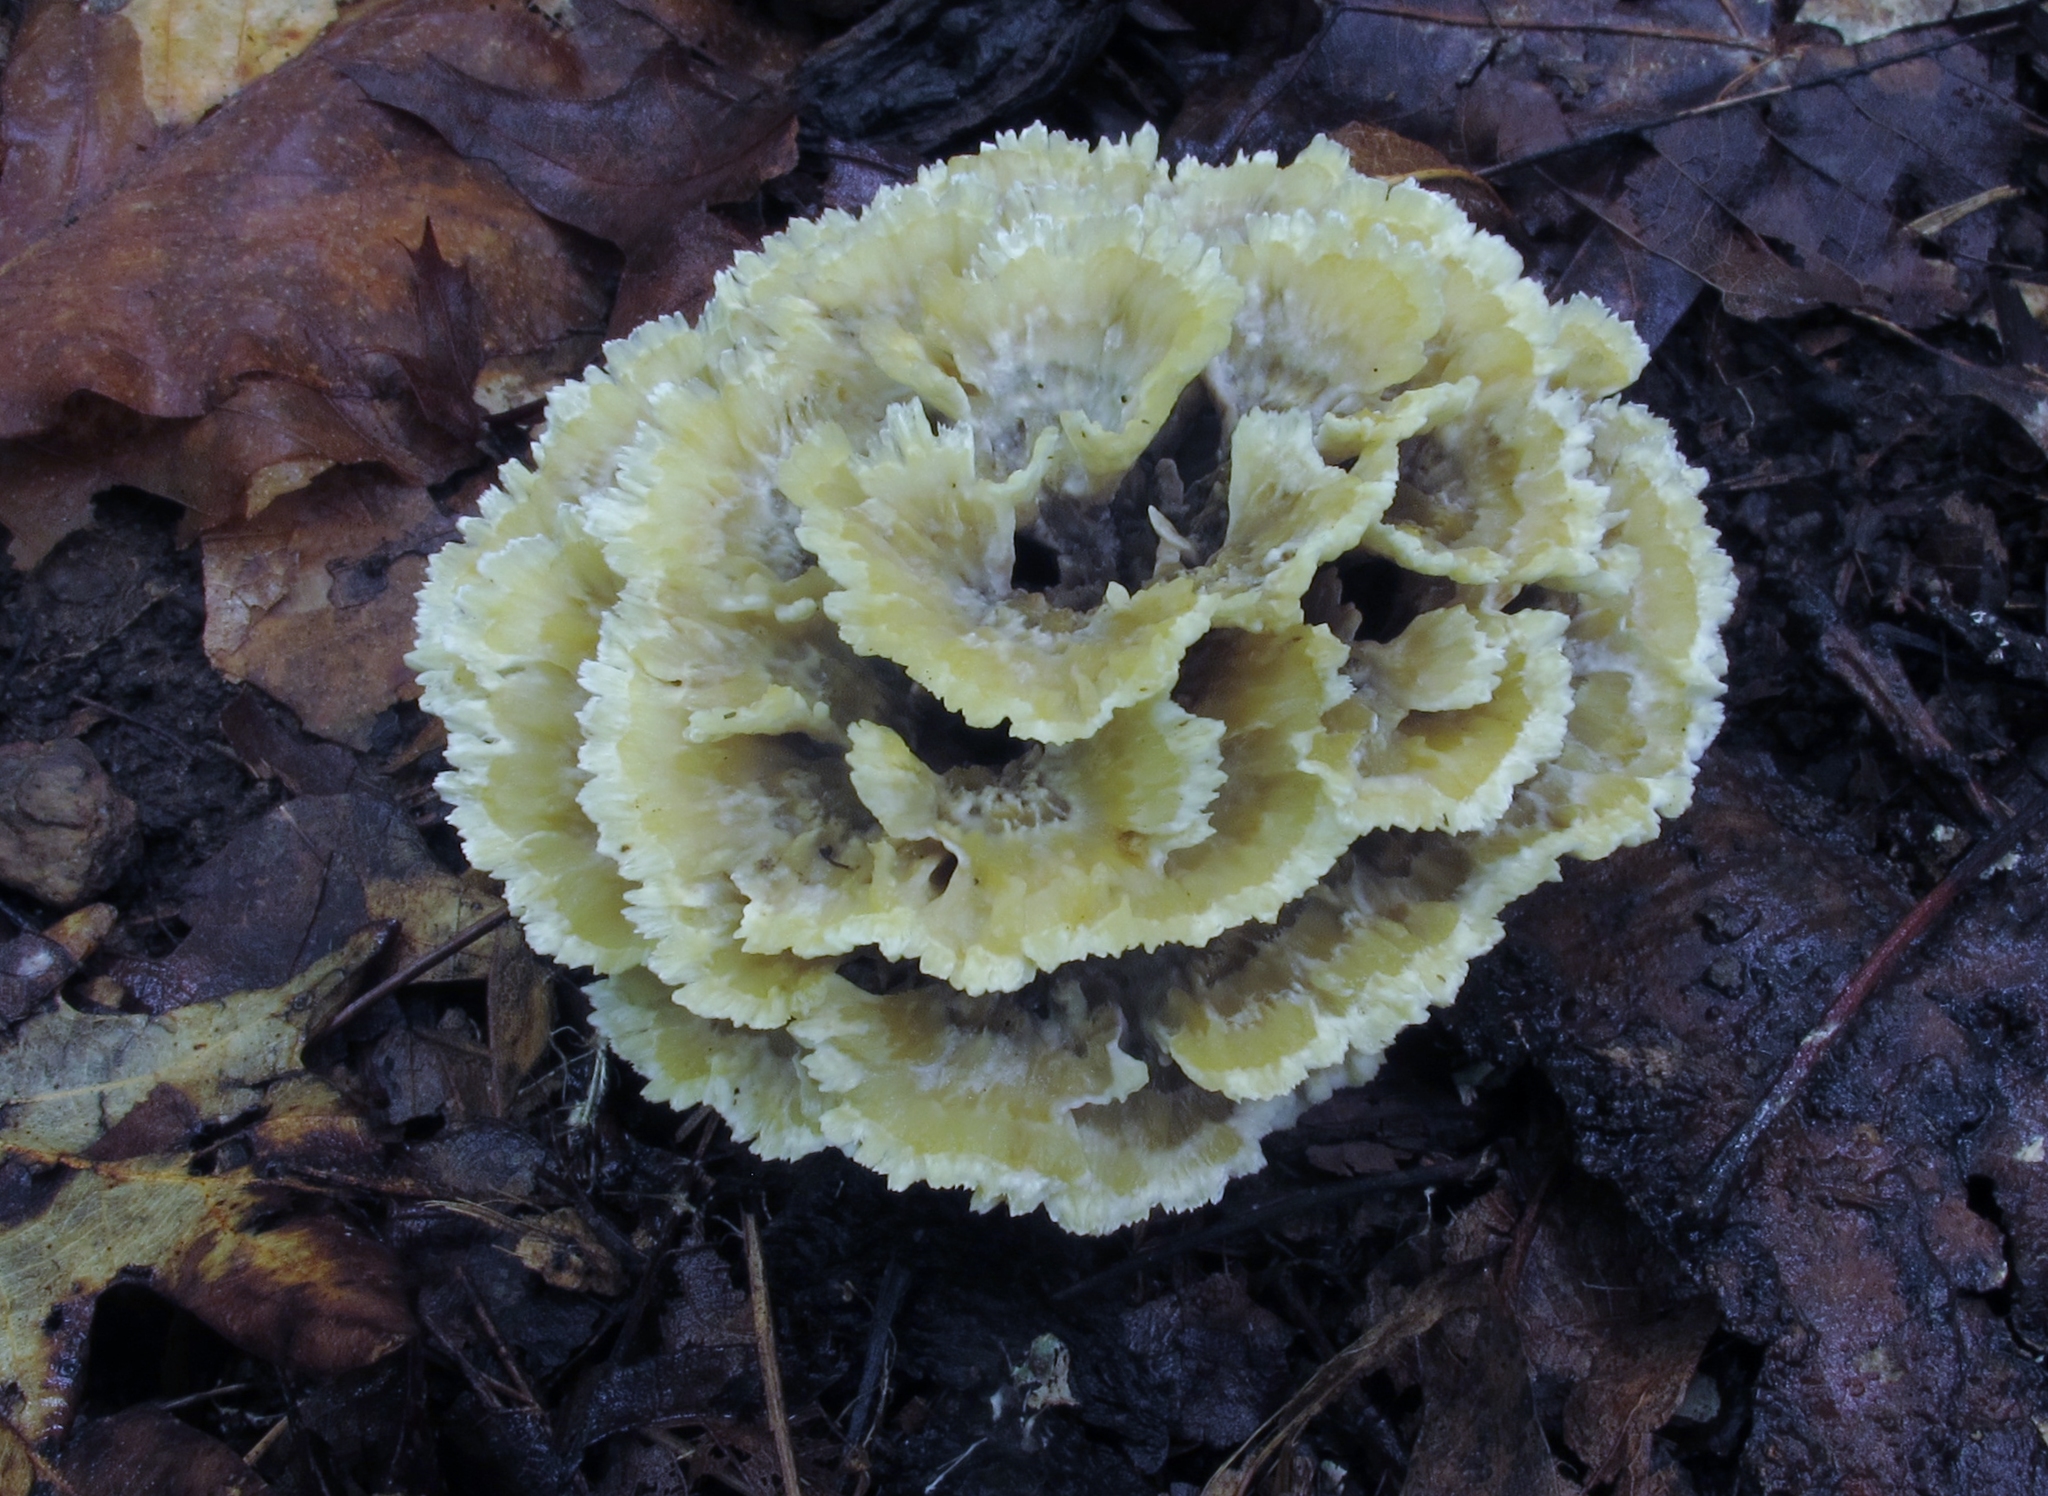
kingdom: Fungi
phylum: Basidiomycota
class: Agaricomycetes
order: Thelephorales
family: Thelephoraceae
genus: Thelephora
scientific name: Thelephora vialis
